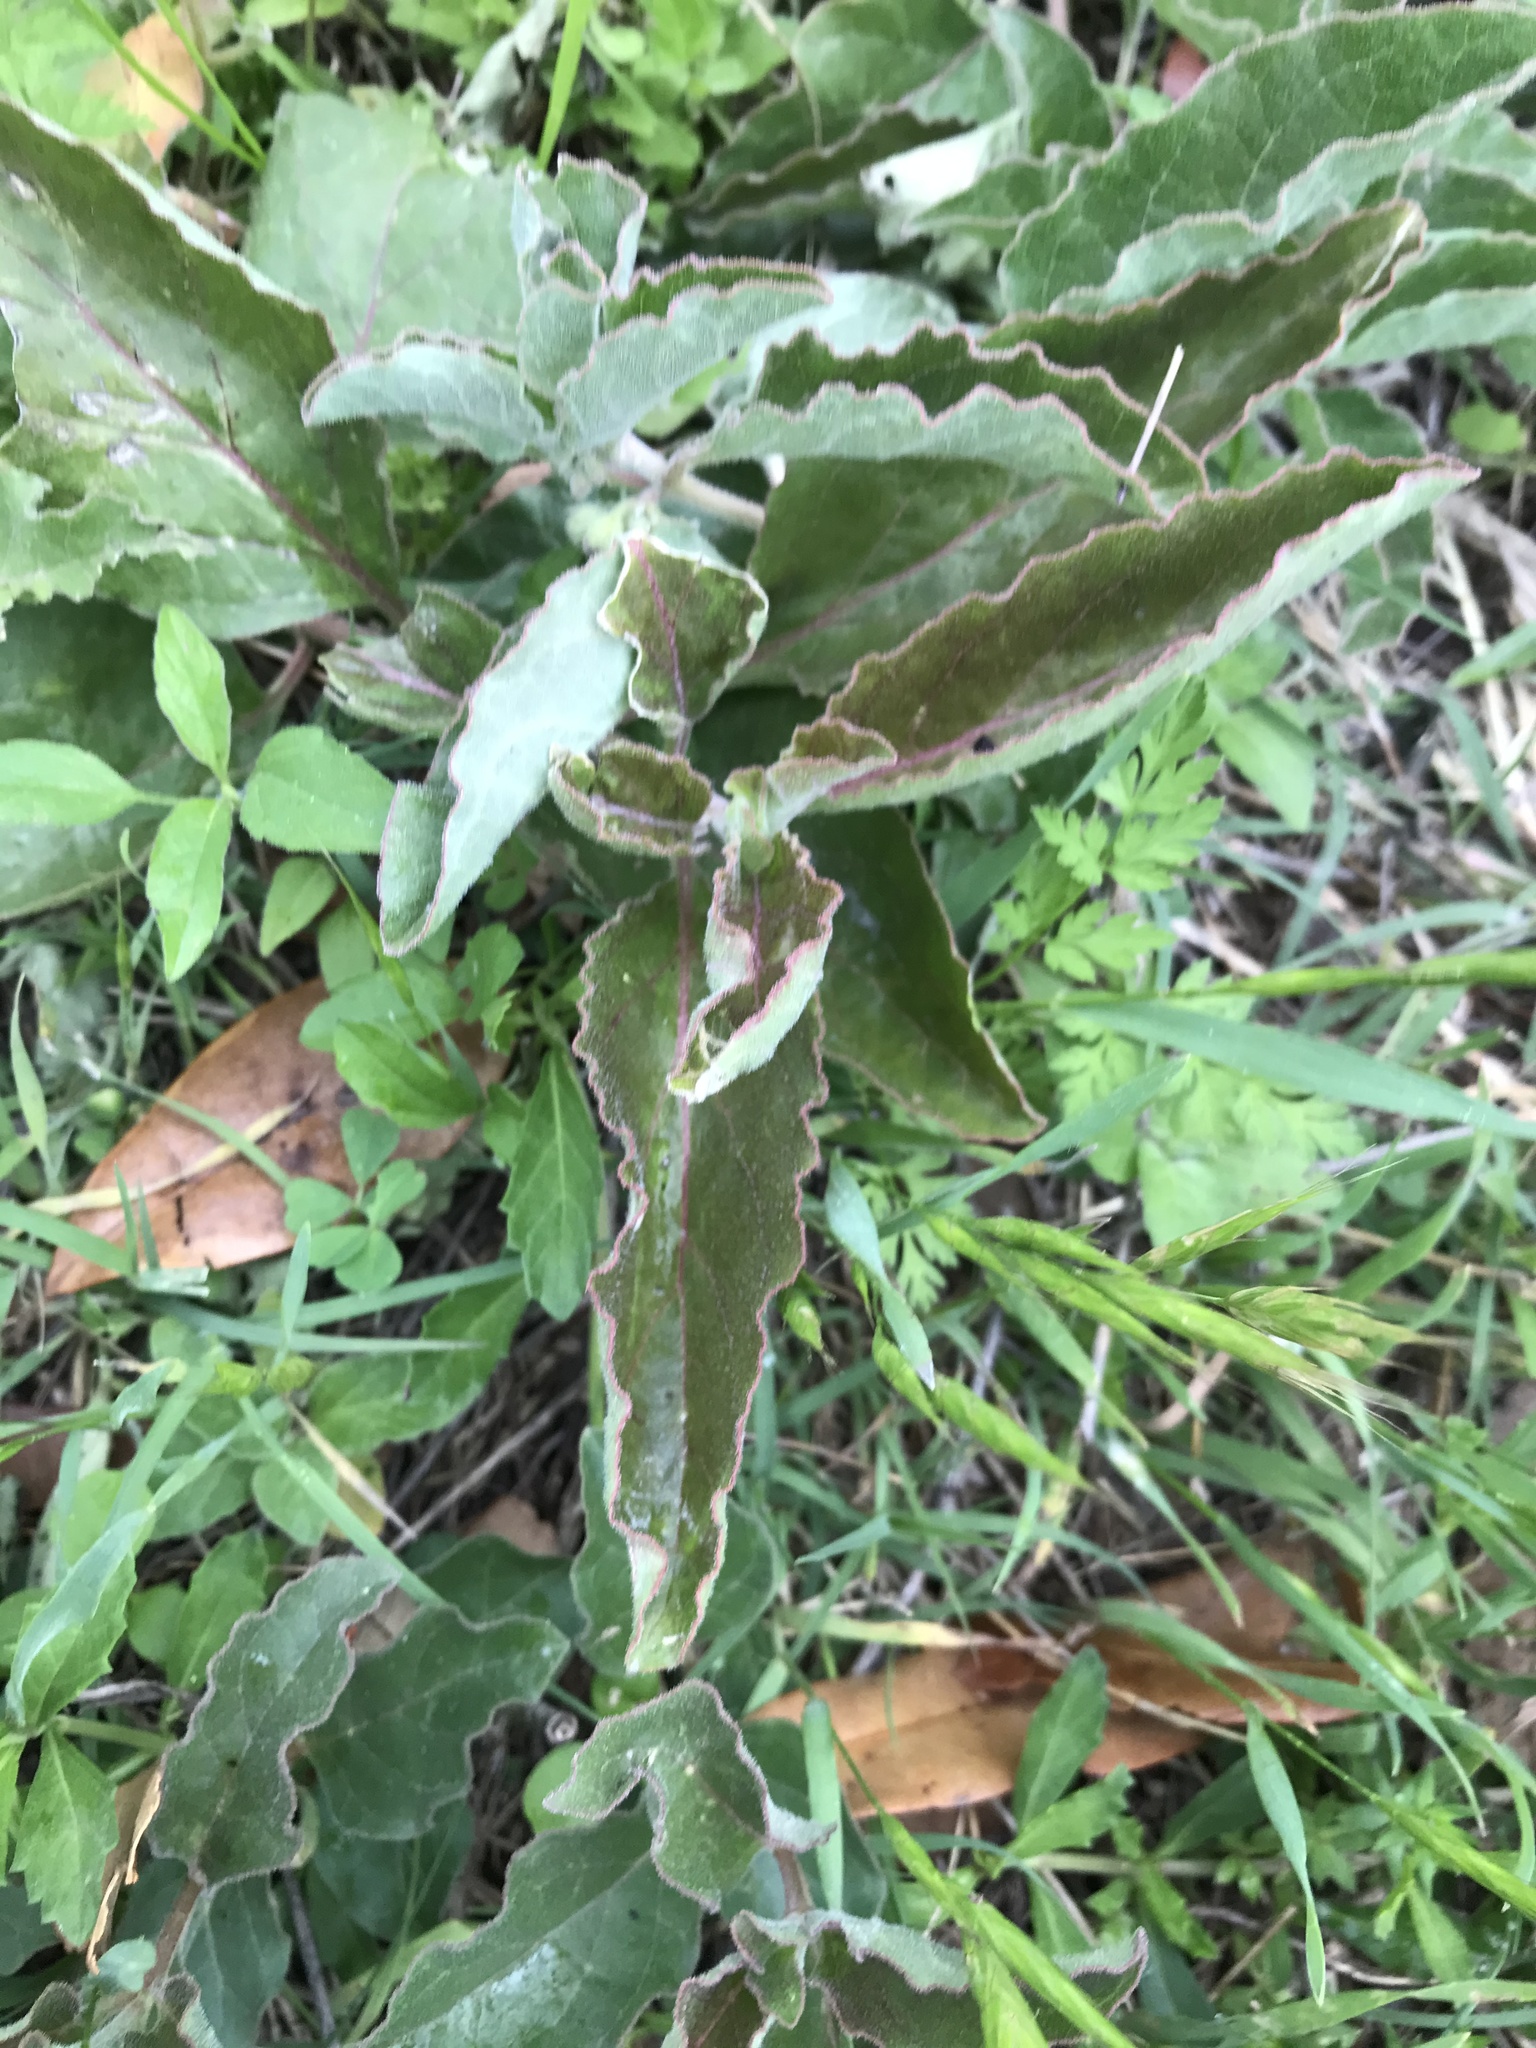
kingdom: Plantae
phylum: Tracheophyta
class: Magnoliopsida
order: Gentianales
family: Apocynaceae
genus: Asclepias
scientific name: Asclepias oenotheroides
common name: Zizotes milkweed
